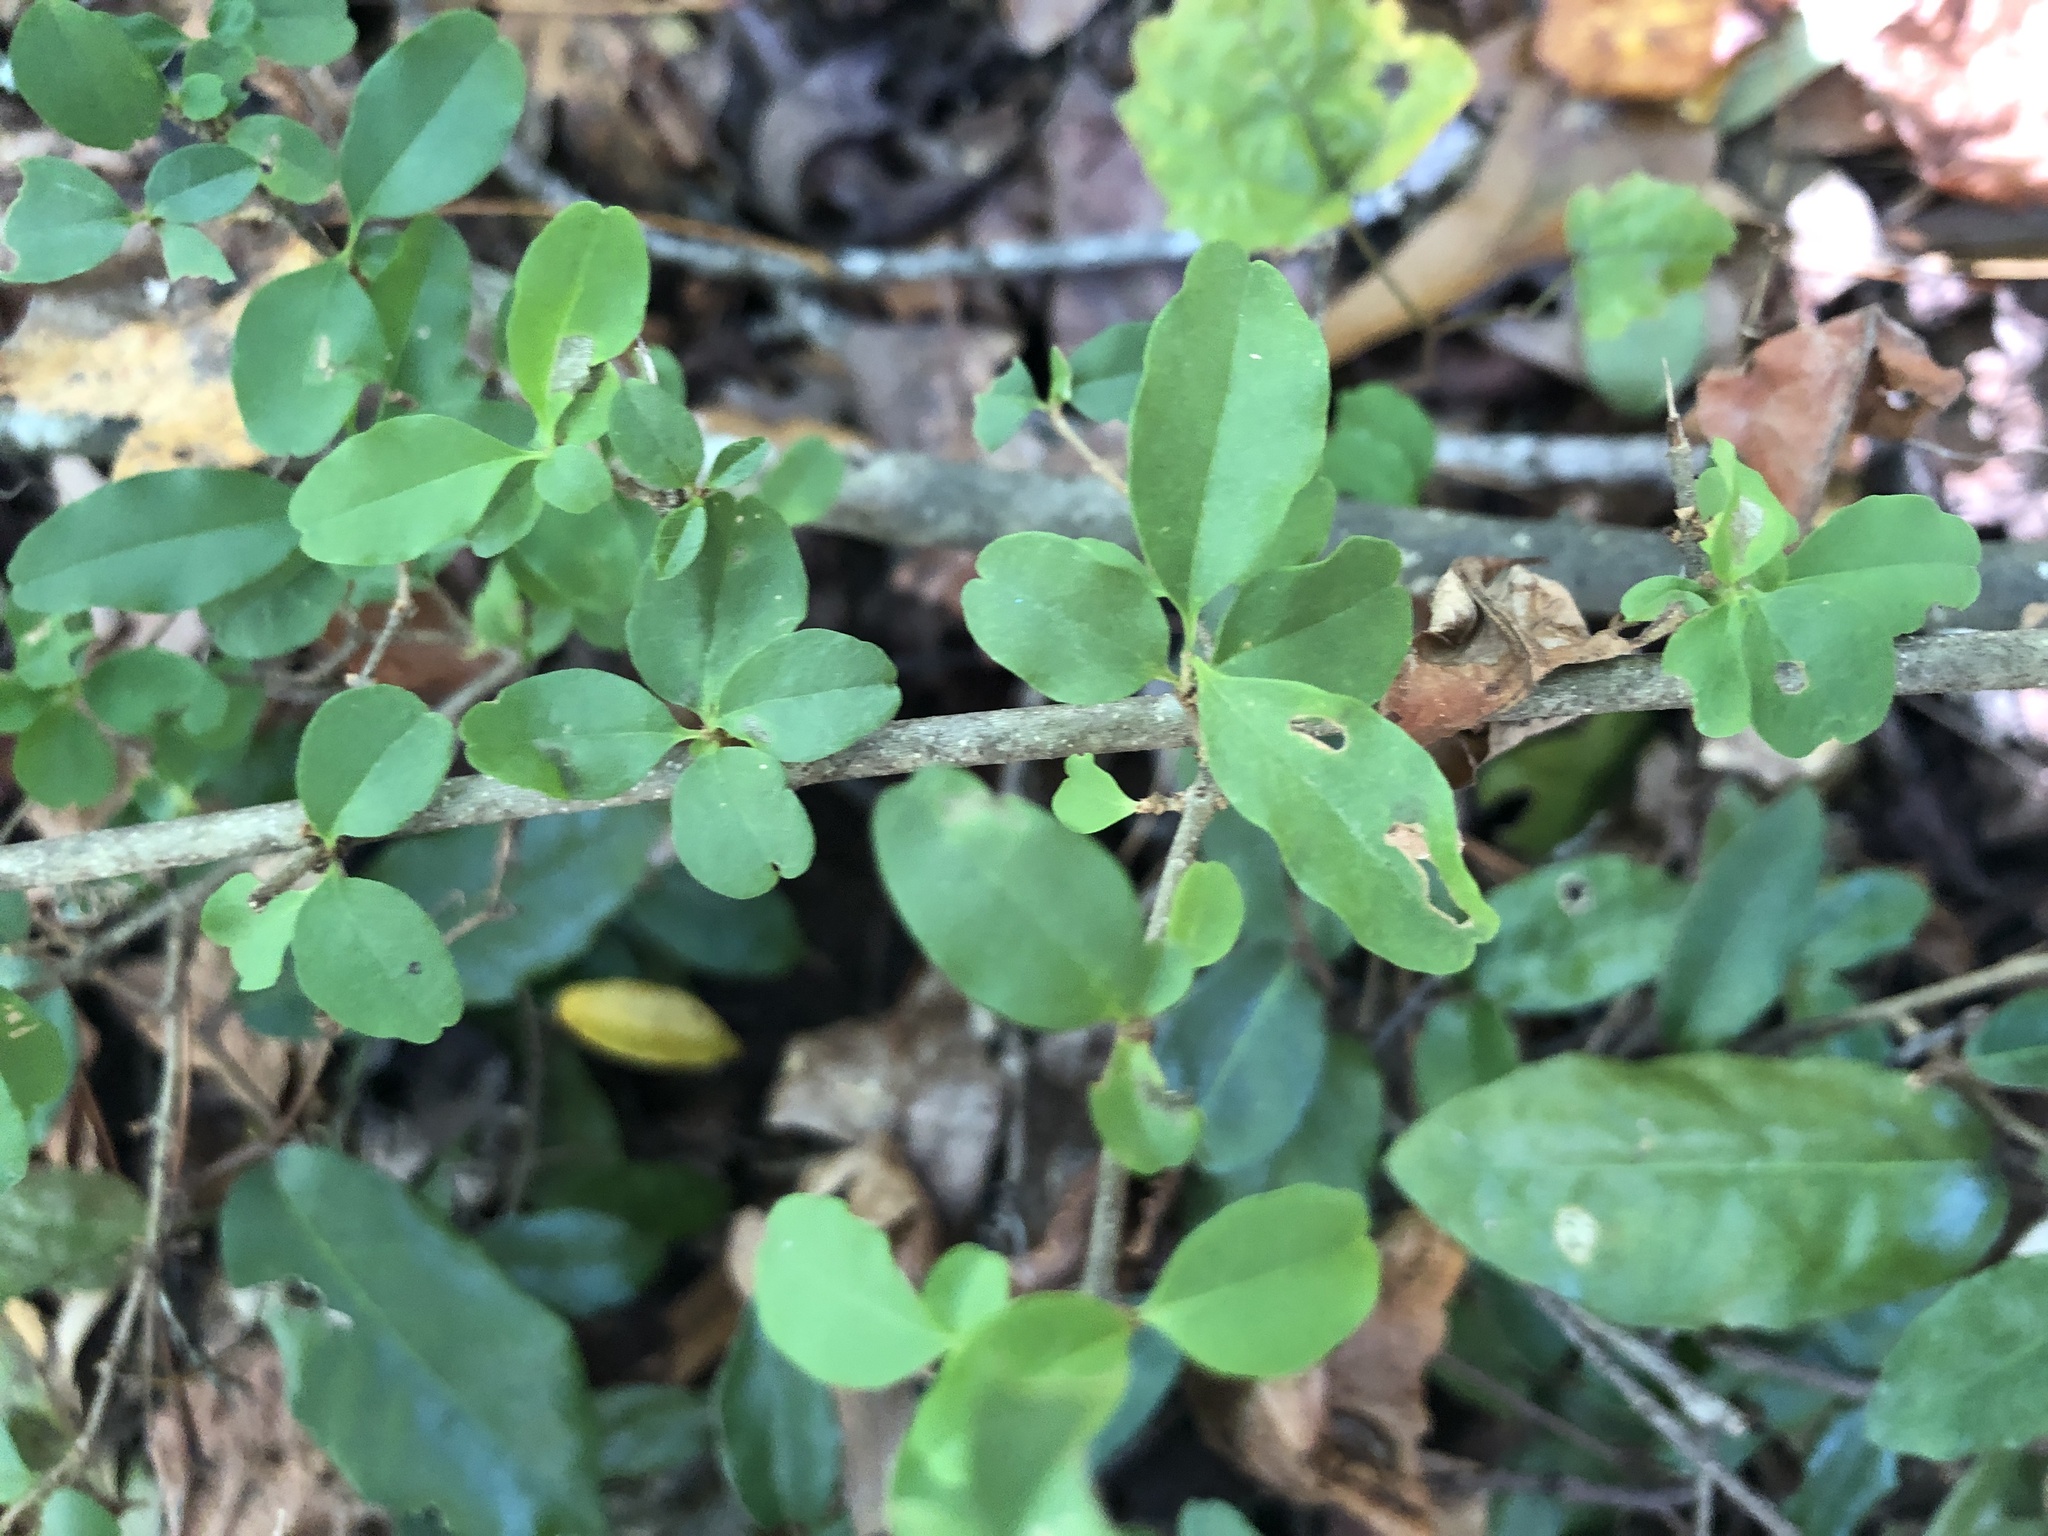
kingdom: Plantae
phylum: Tracheophyta
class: Magnoliopsida
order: Lamiales
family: Oleaceae
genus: Ligustrum
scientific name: Ligustrum sinense
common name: Chinese privet
